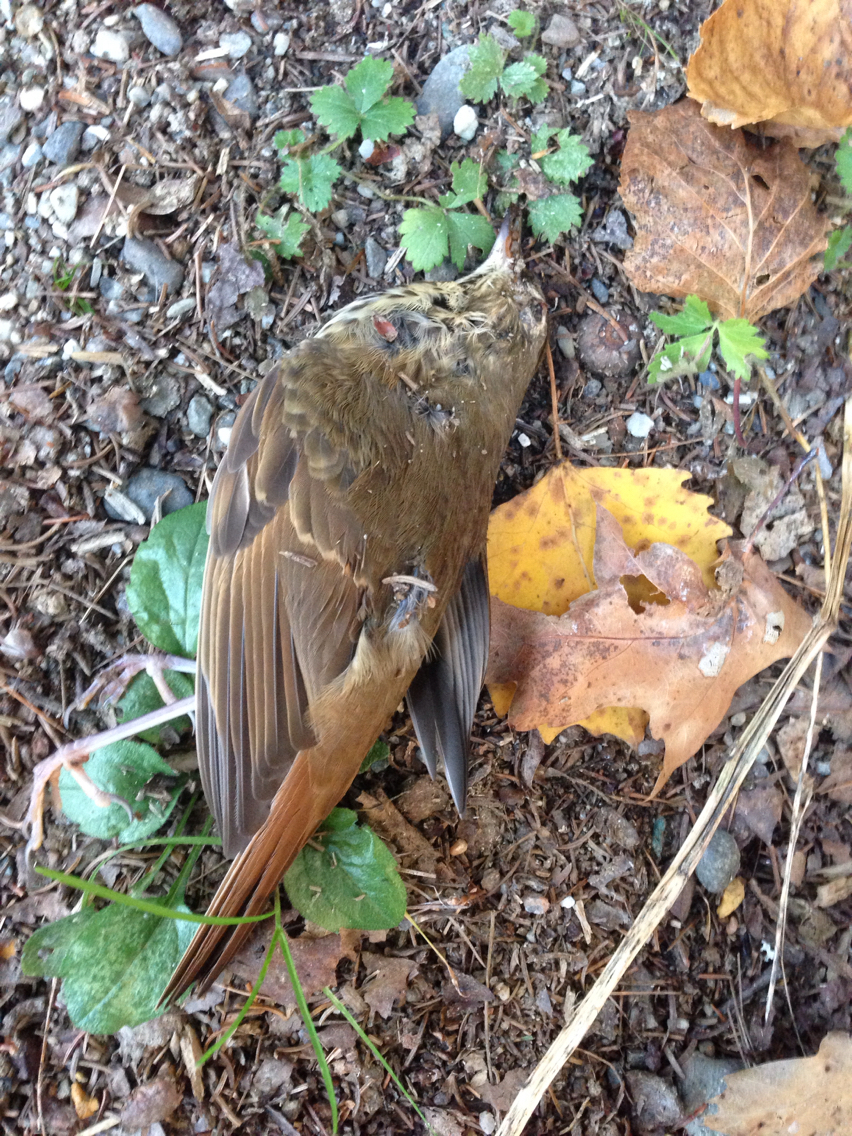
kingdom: Animalia
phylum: Chordata
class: Aves
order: Passeriformes
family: Turdidae
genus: Catharus
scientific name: Catharus guttatus
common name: Hermit thrush
